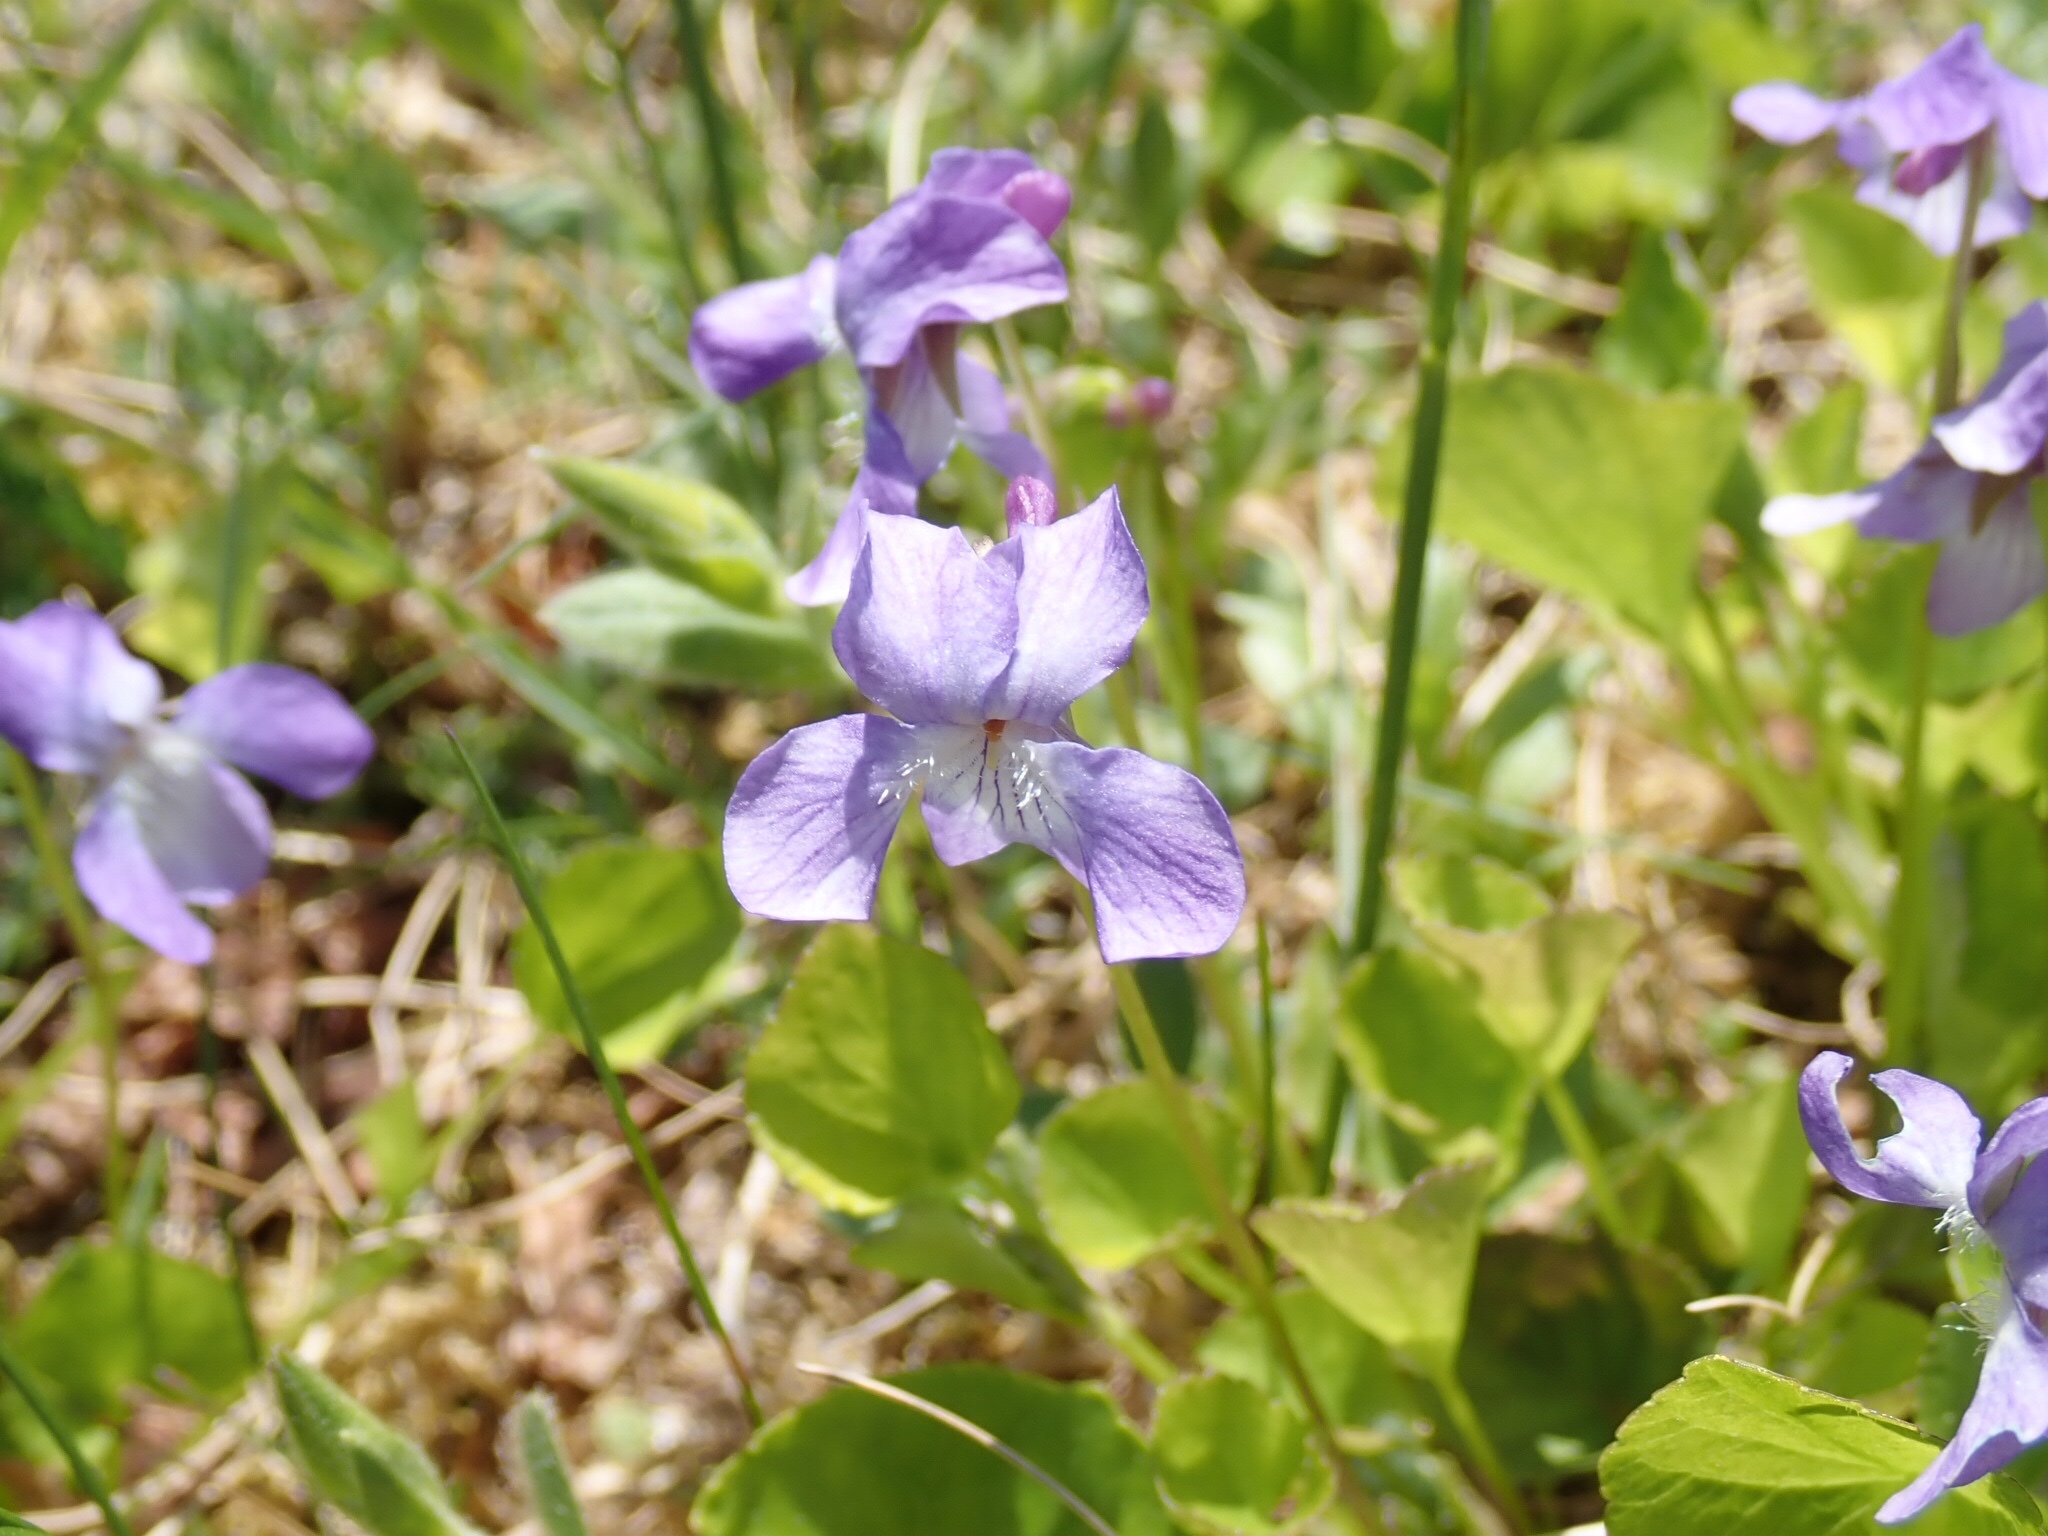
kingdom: Plantae
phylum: Tracheophyta
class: Magnoliopsida
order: Malpighiales
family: Violaceae
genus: Viola
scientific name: Viola labradorica
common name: Labrador violet
